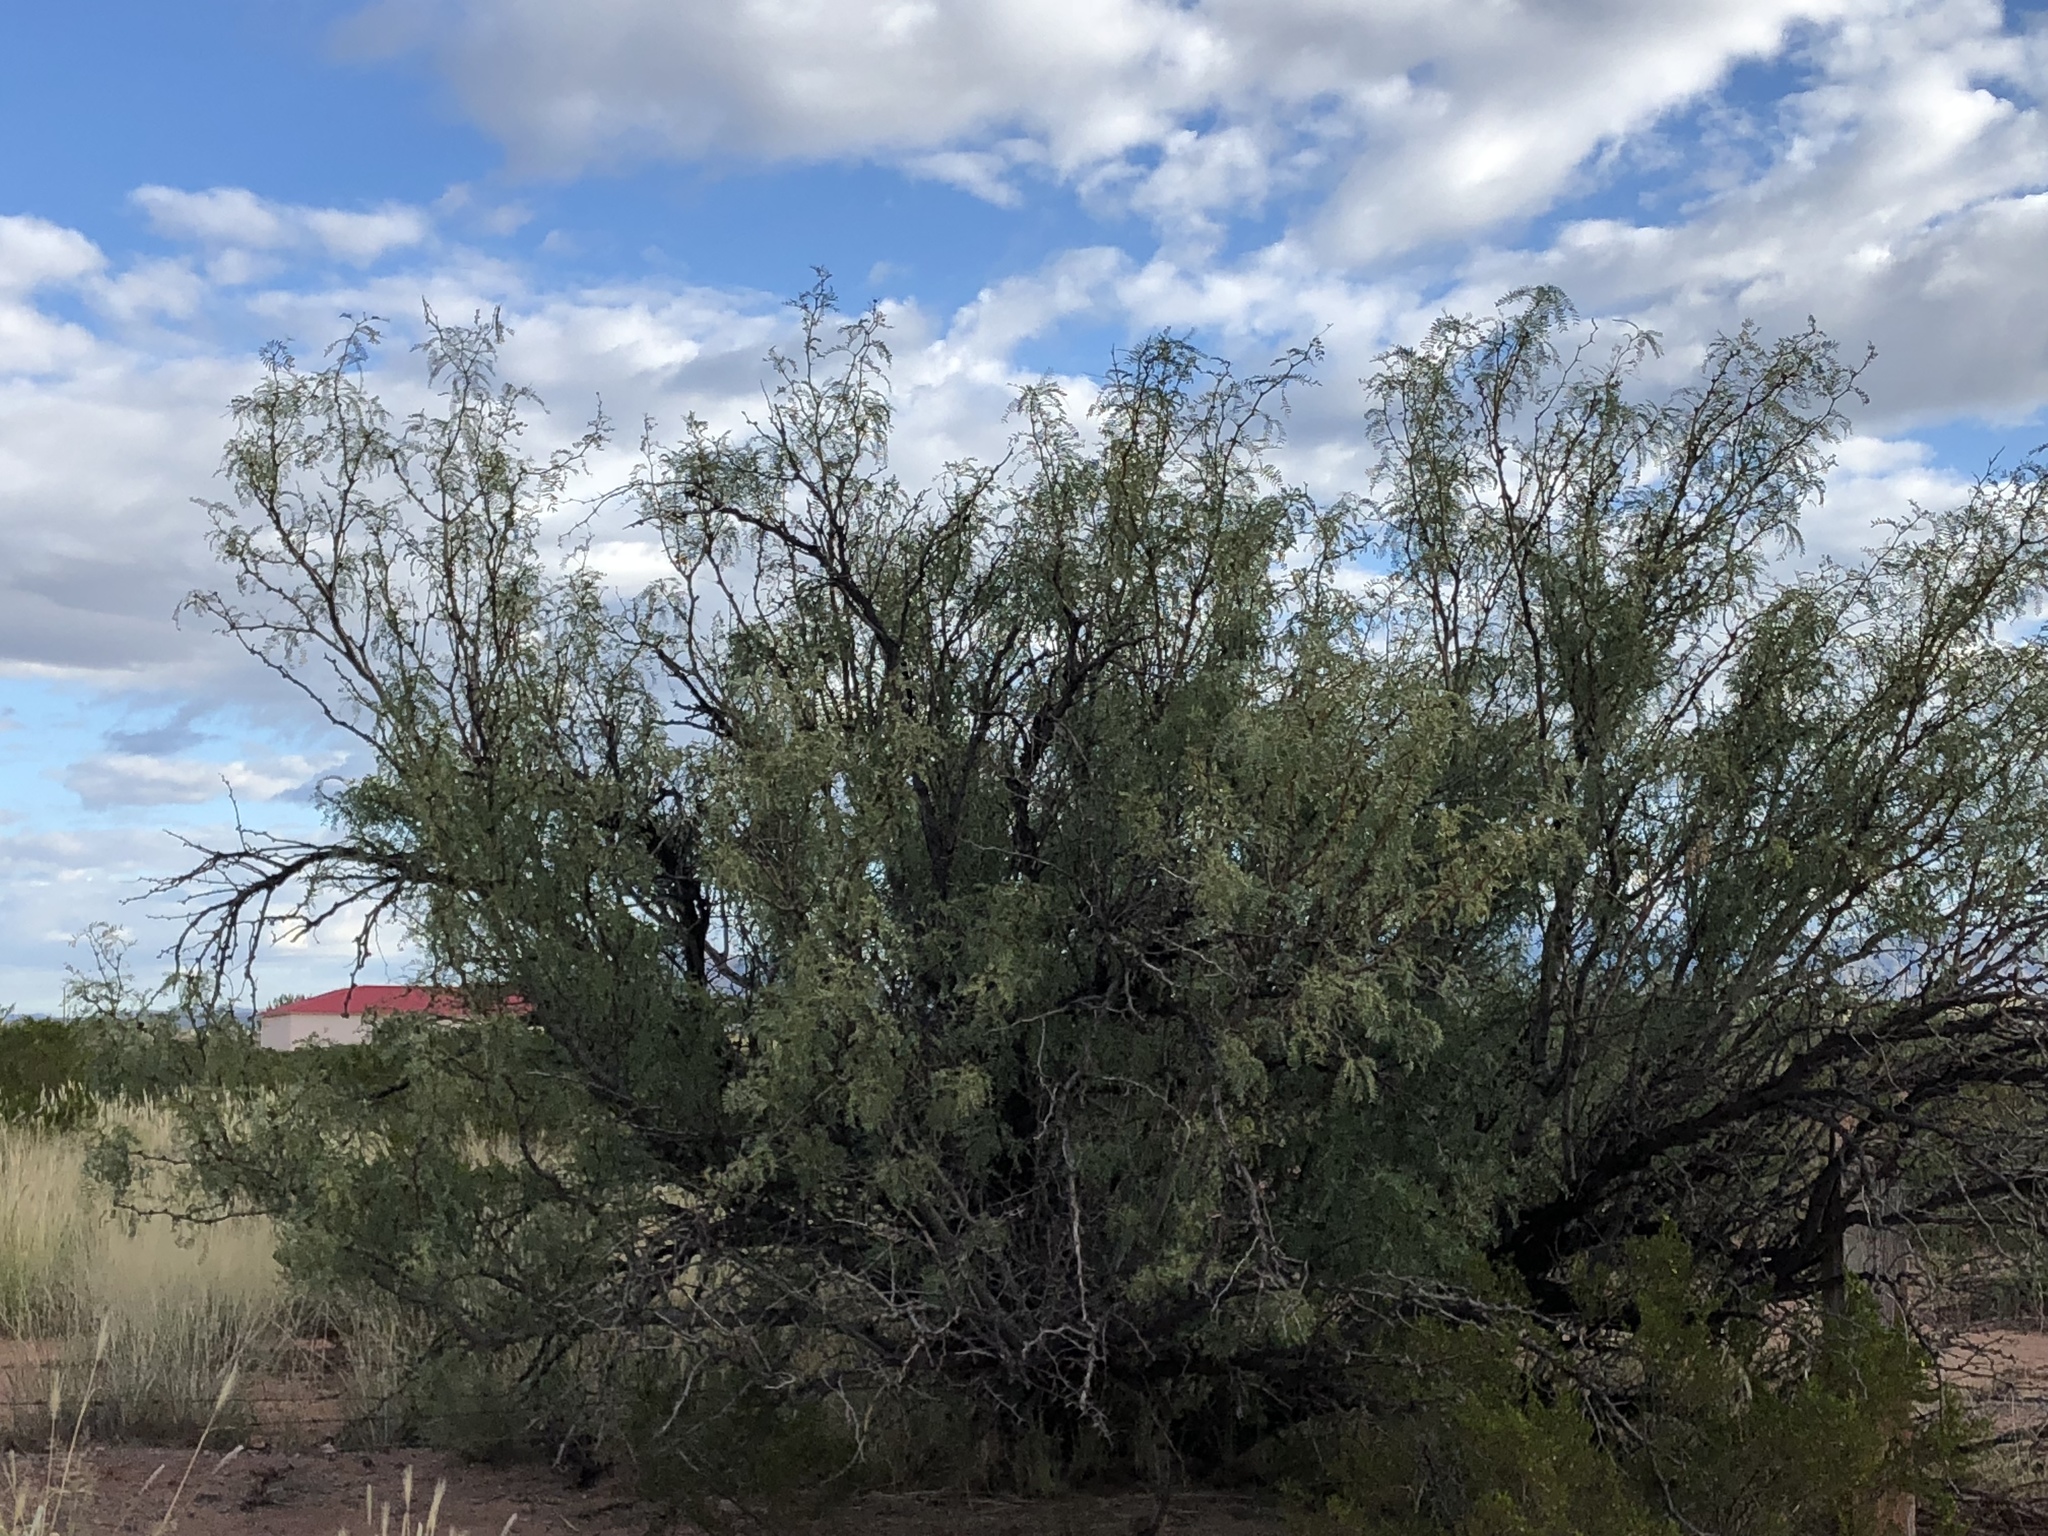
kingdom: Plantae
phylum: Tracheophyta
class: Magnoliopsida
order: Fabales
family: Fabaceae
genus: Prosopis
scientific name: Prosopis glandulosa
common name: Honey mesquite
